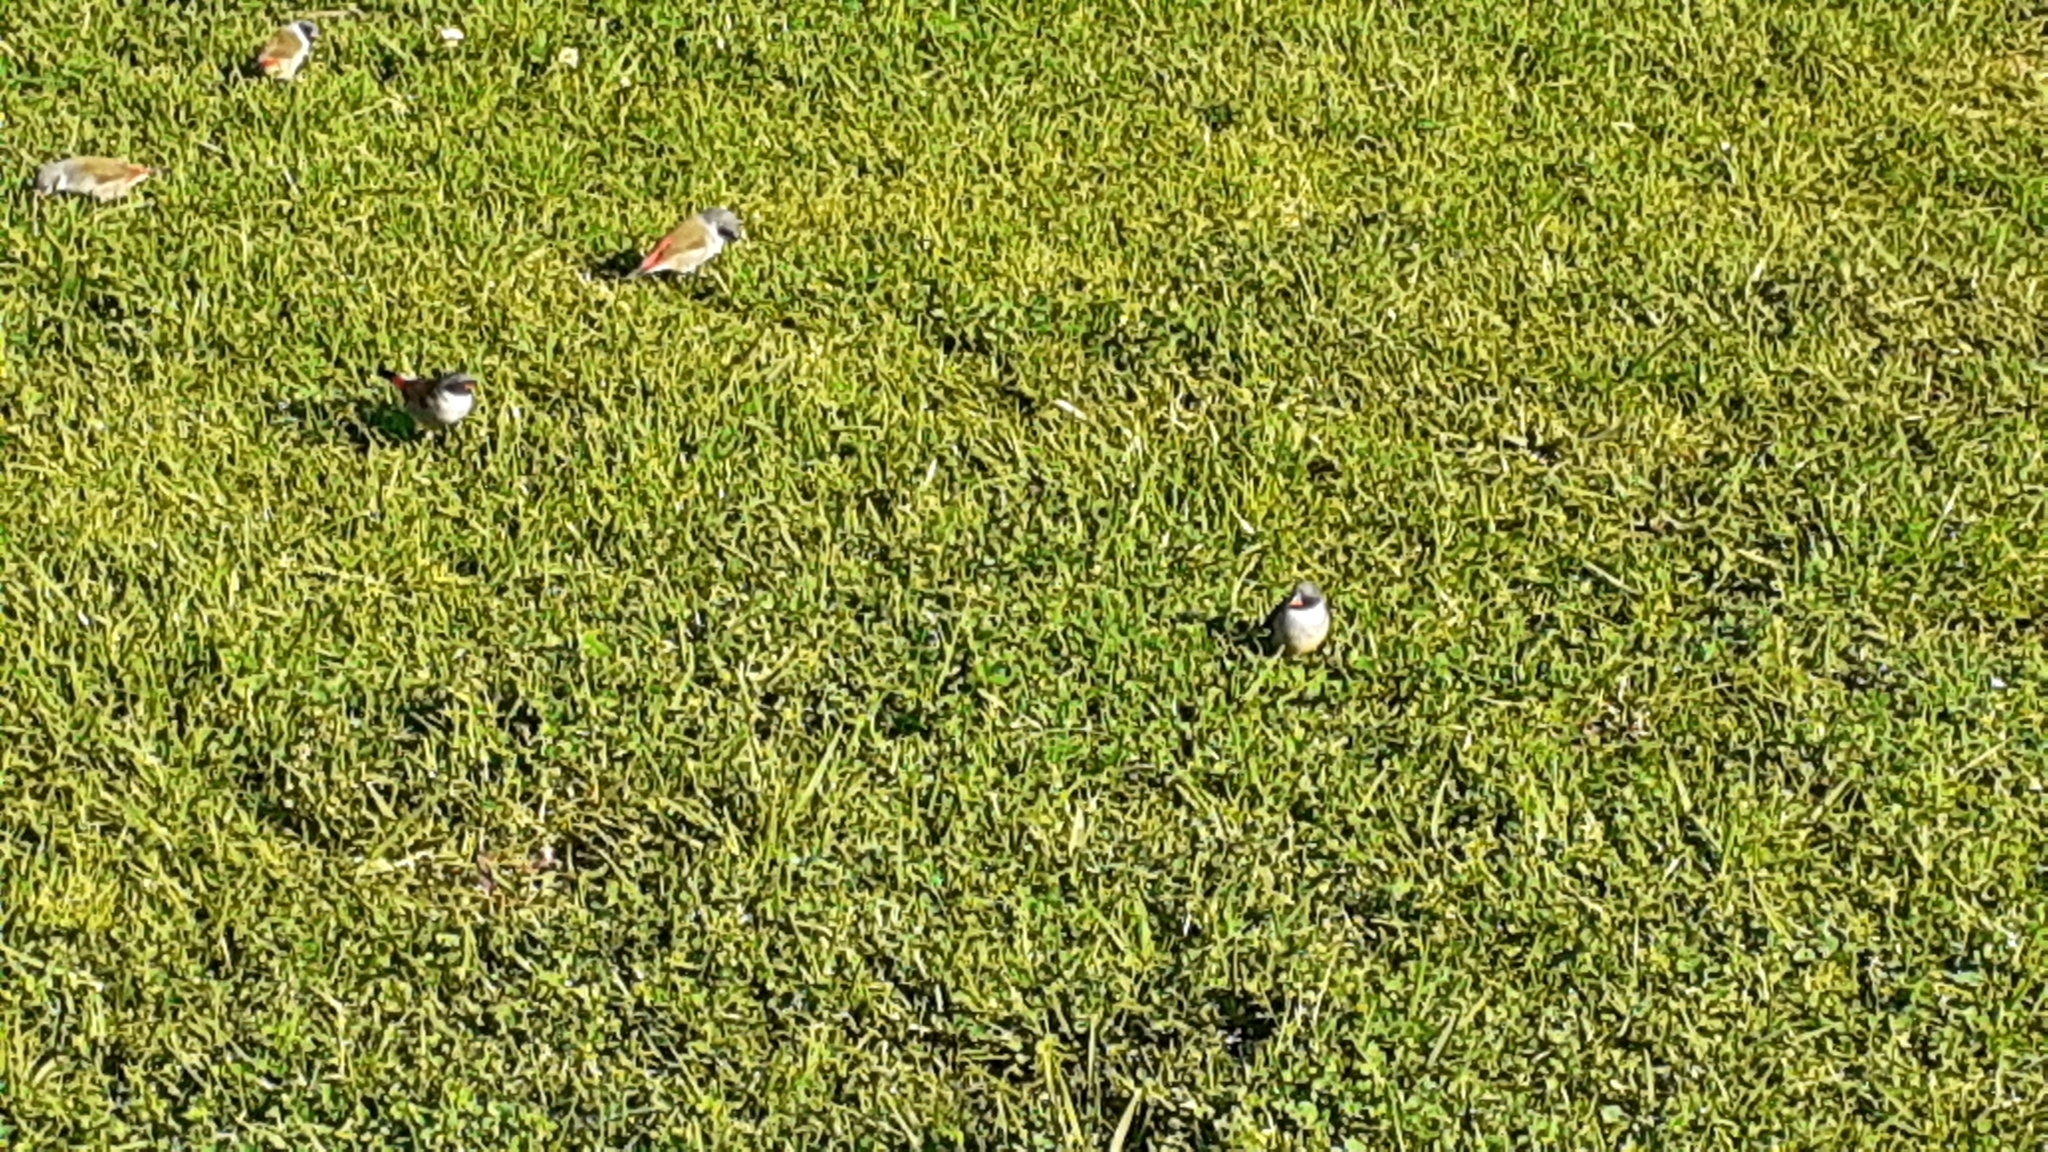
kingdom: Animalia
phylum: Chordata
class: Aves
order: Passeriformes
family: Estrildidae
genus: Coccopygia
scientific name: Coccopygia melanotis
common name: Swee waxbill
